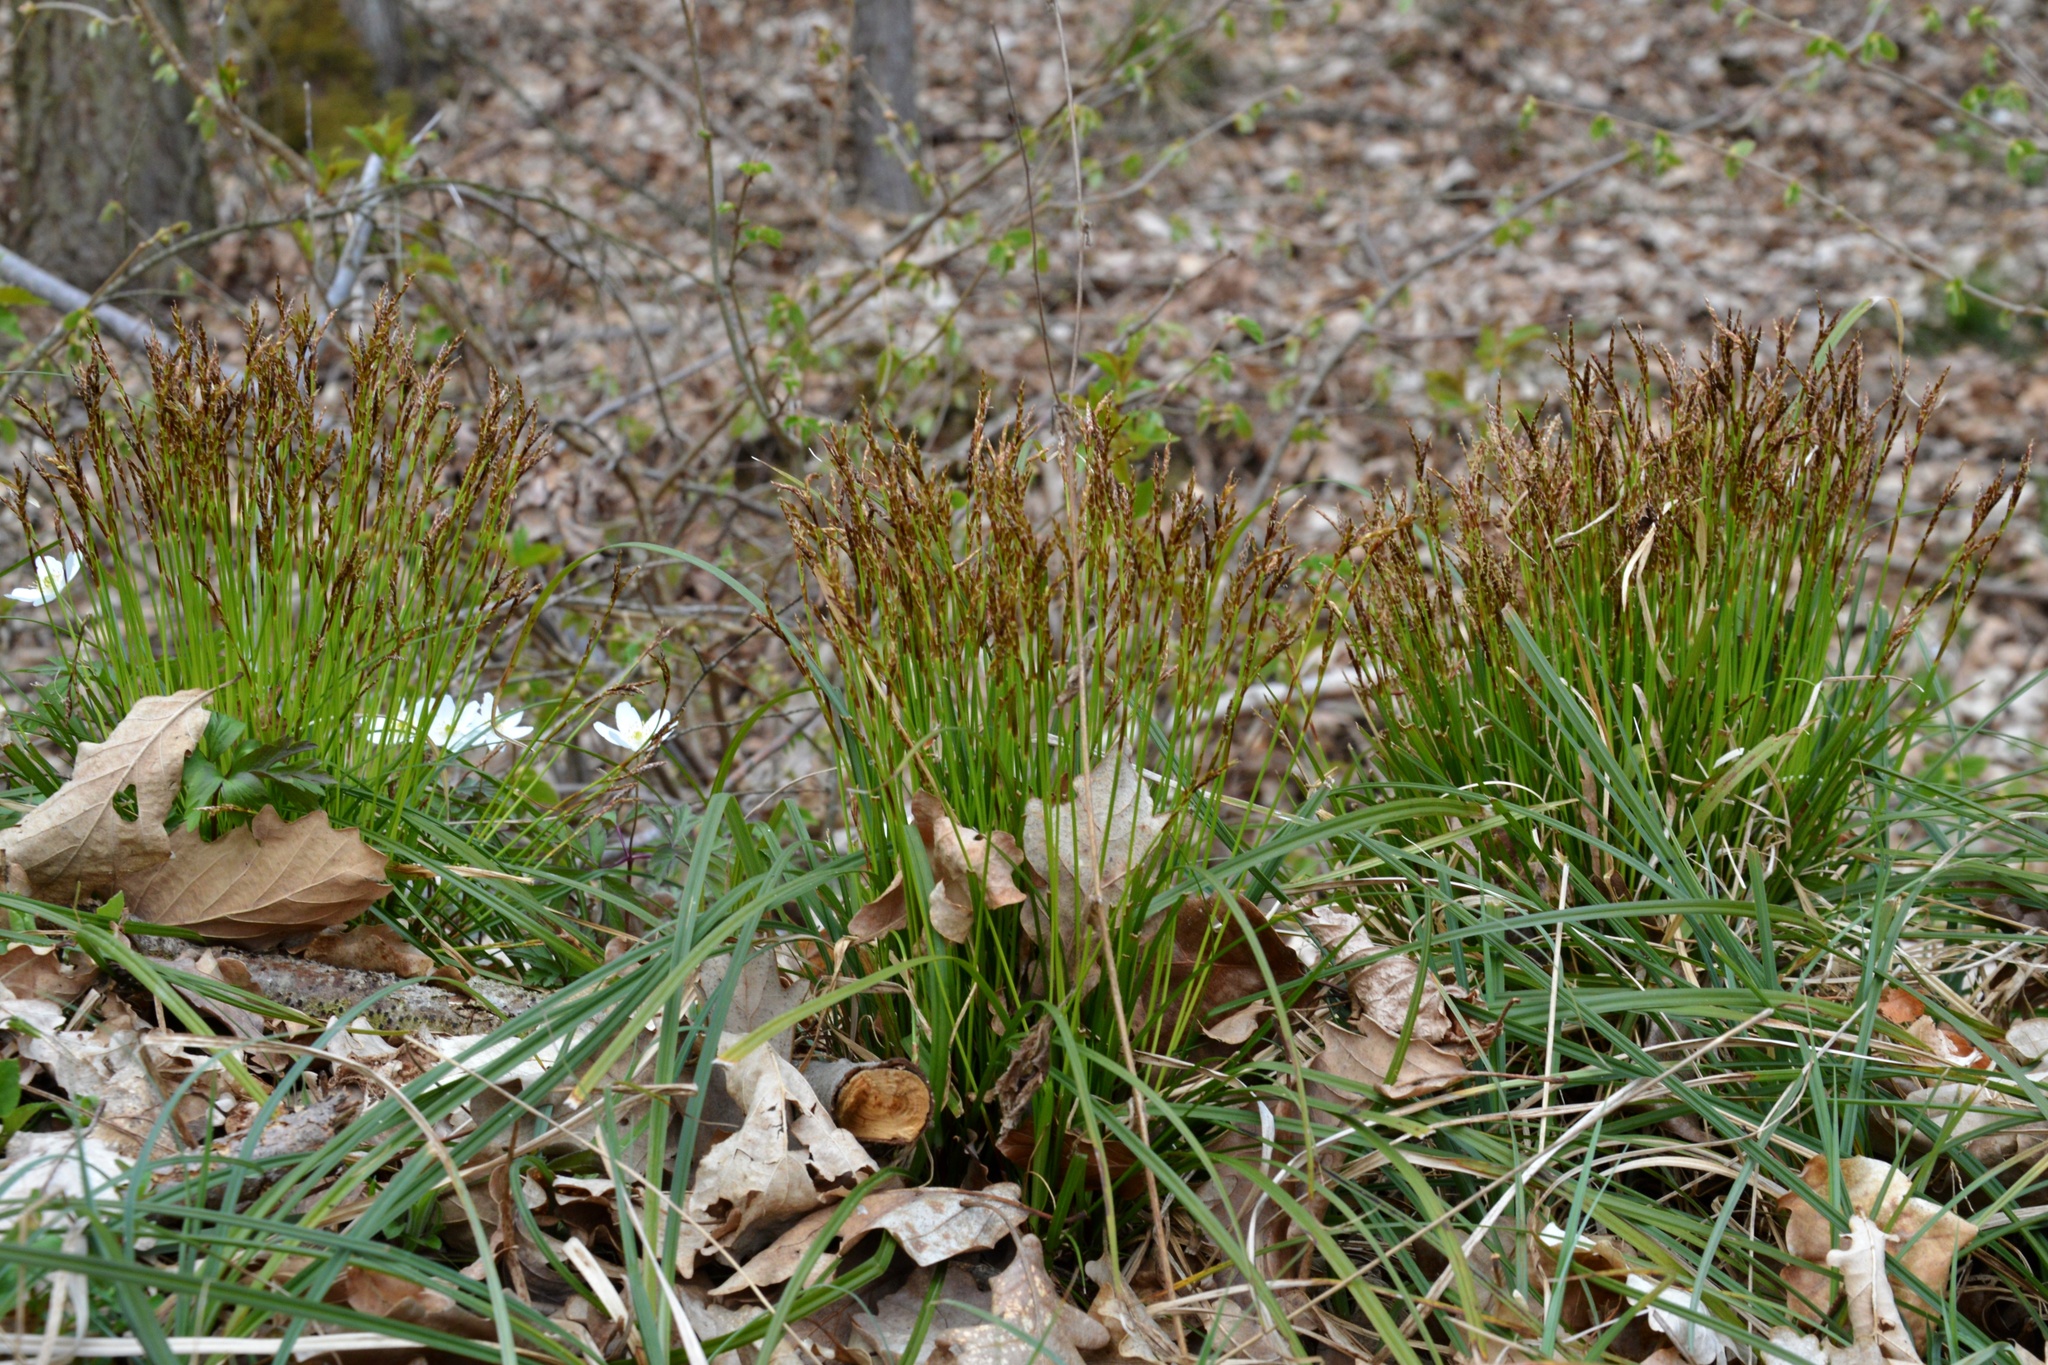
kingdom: Plantae
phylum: Tracheophyta
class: Liliopsida
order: Poales
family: Cyperaceae
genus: Carex
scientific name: Carex digitata
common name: Fingered sedge
